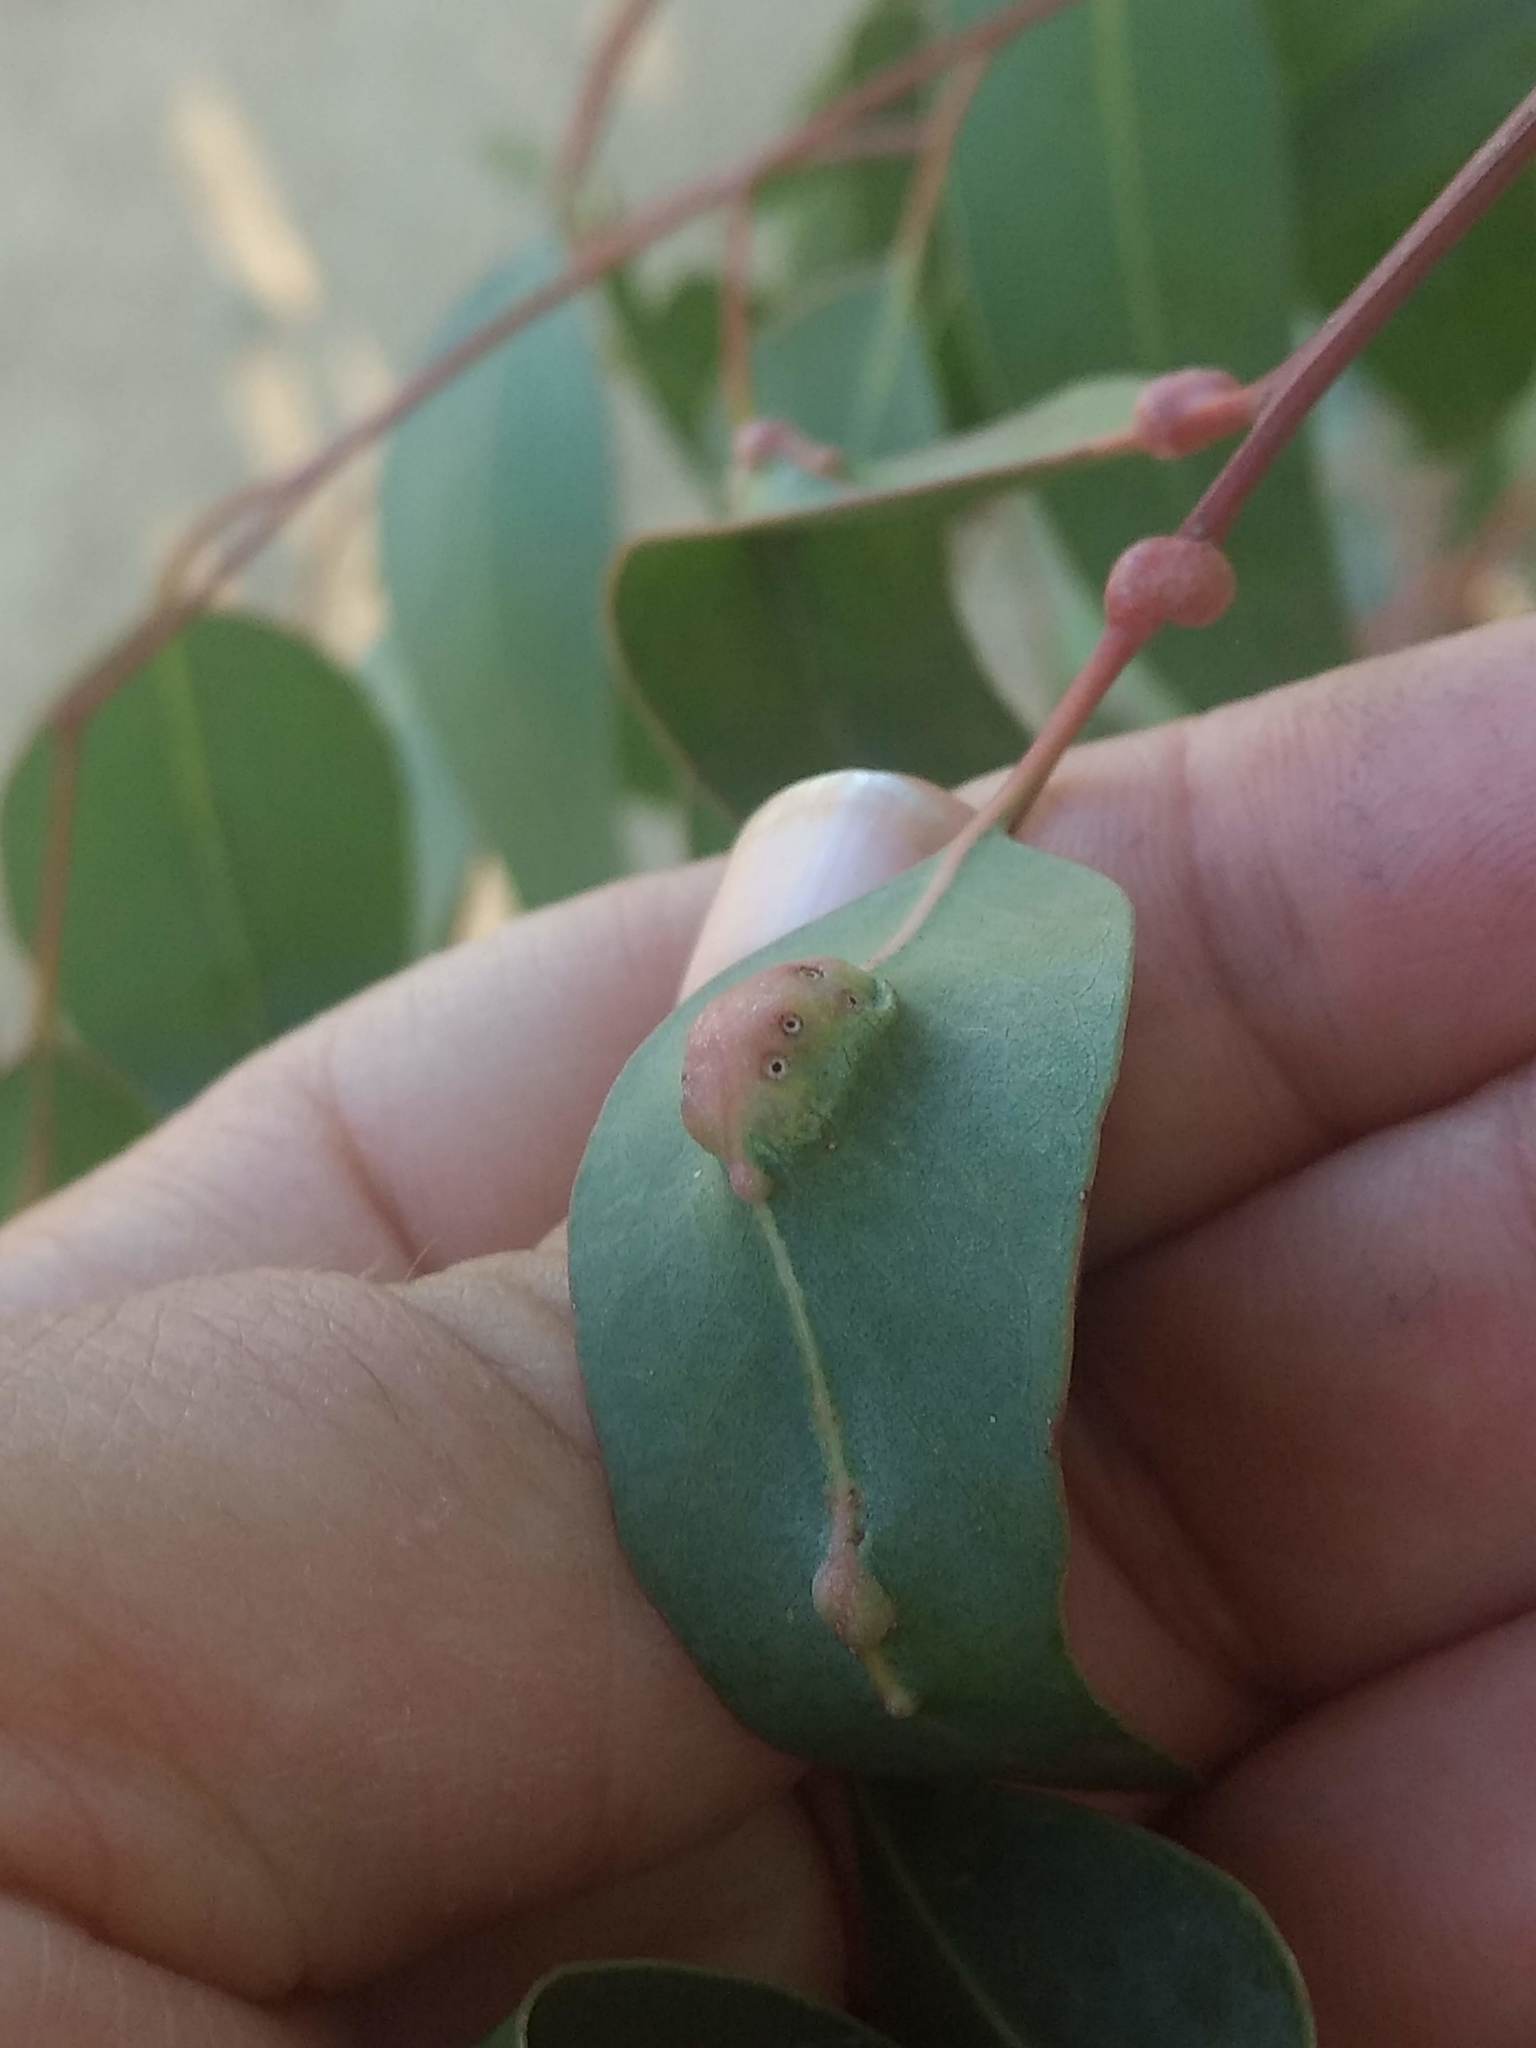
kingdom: Animalia
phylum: Arthropoda
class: Insecta
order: Hymenoptera
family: Eulophidae
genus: Leptocybe
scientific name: Leptocybe invasa
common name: Gall wasp
